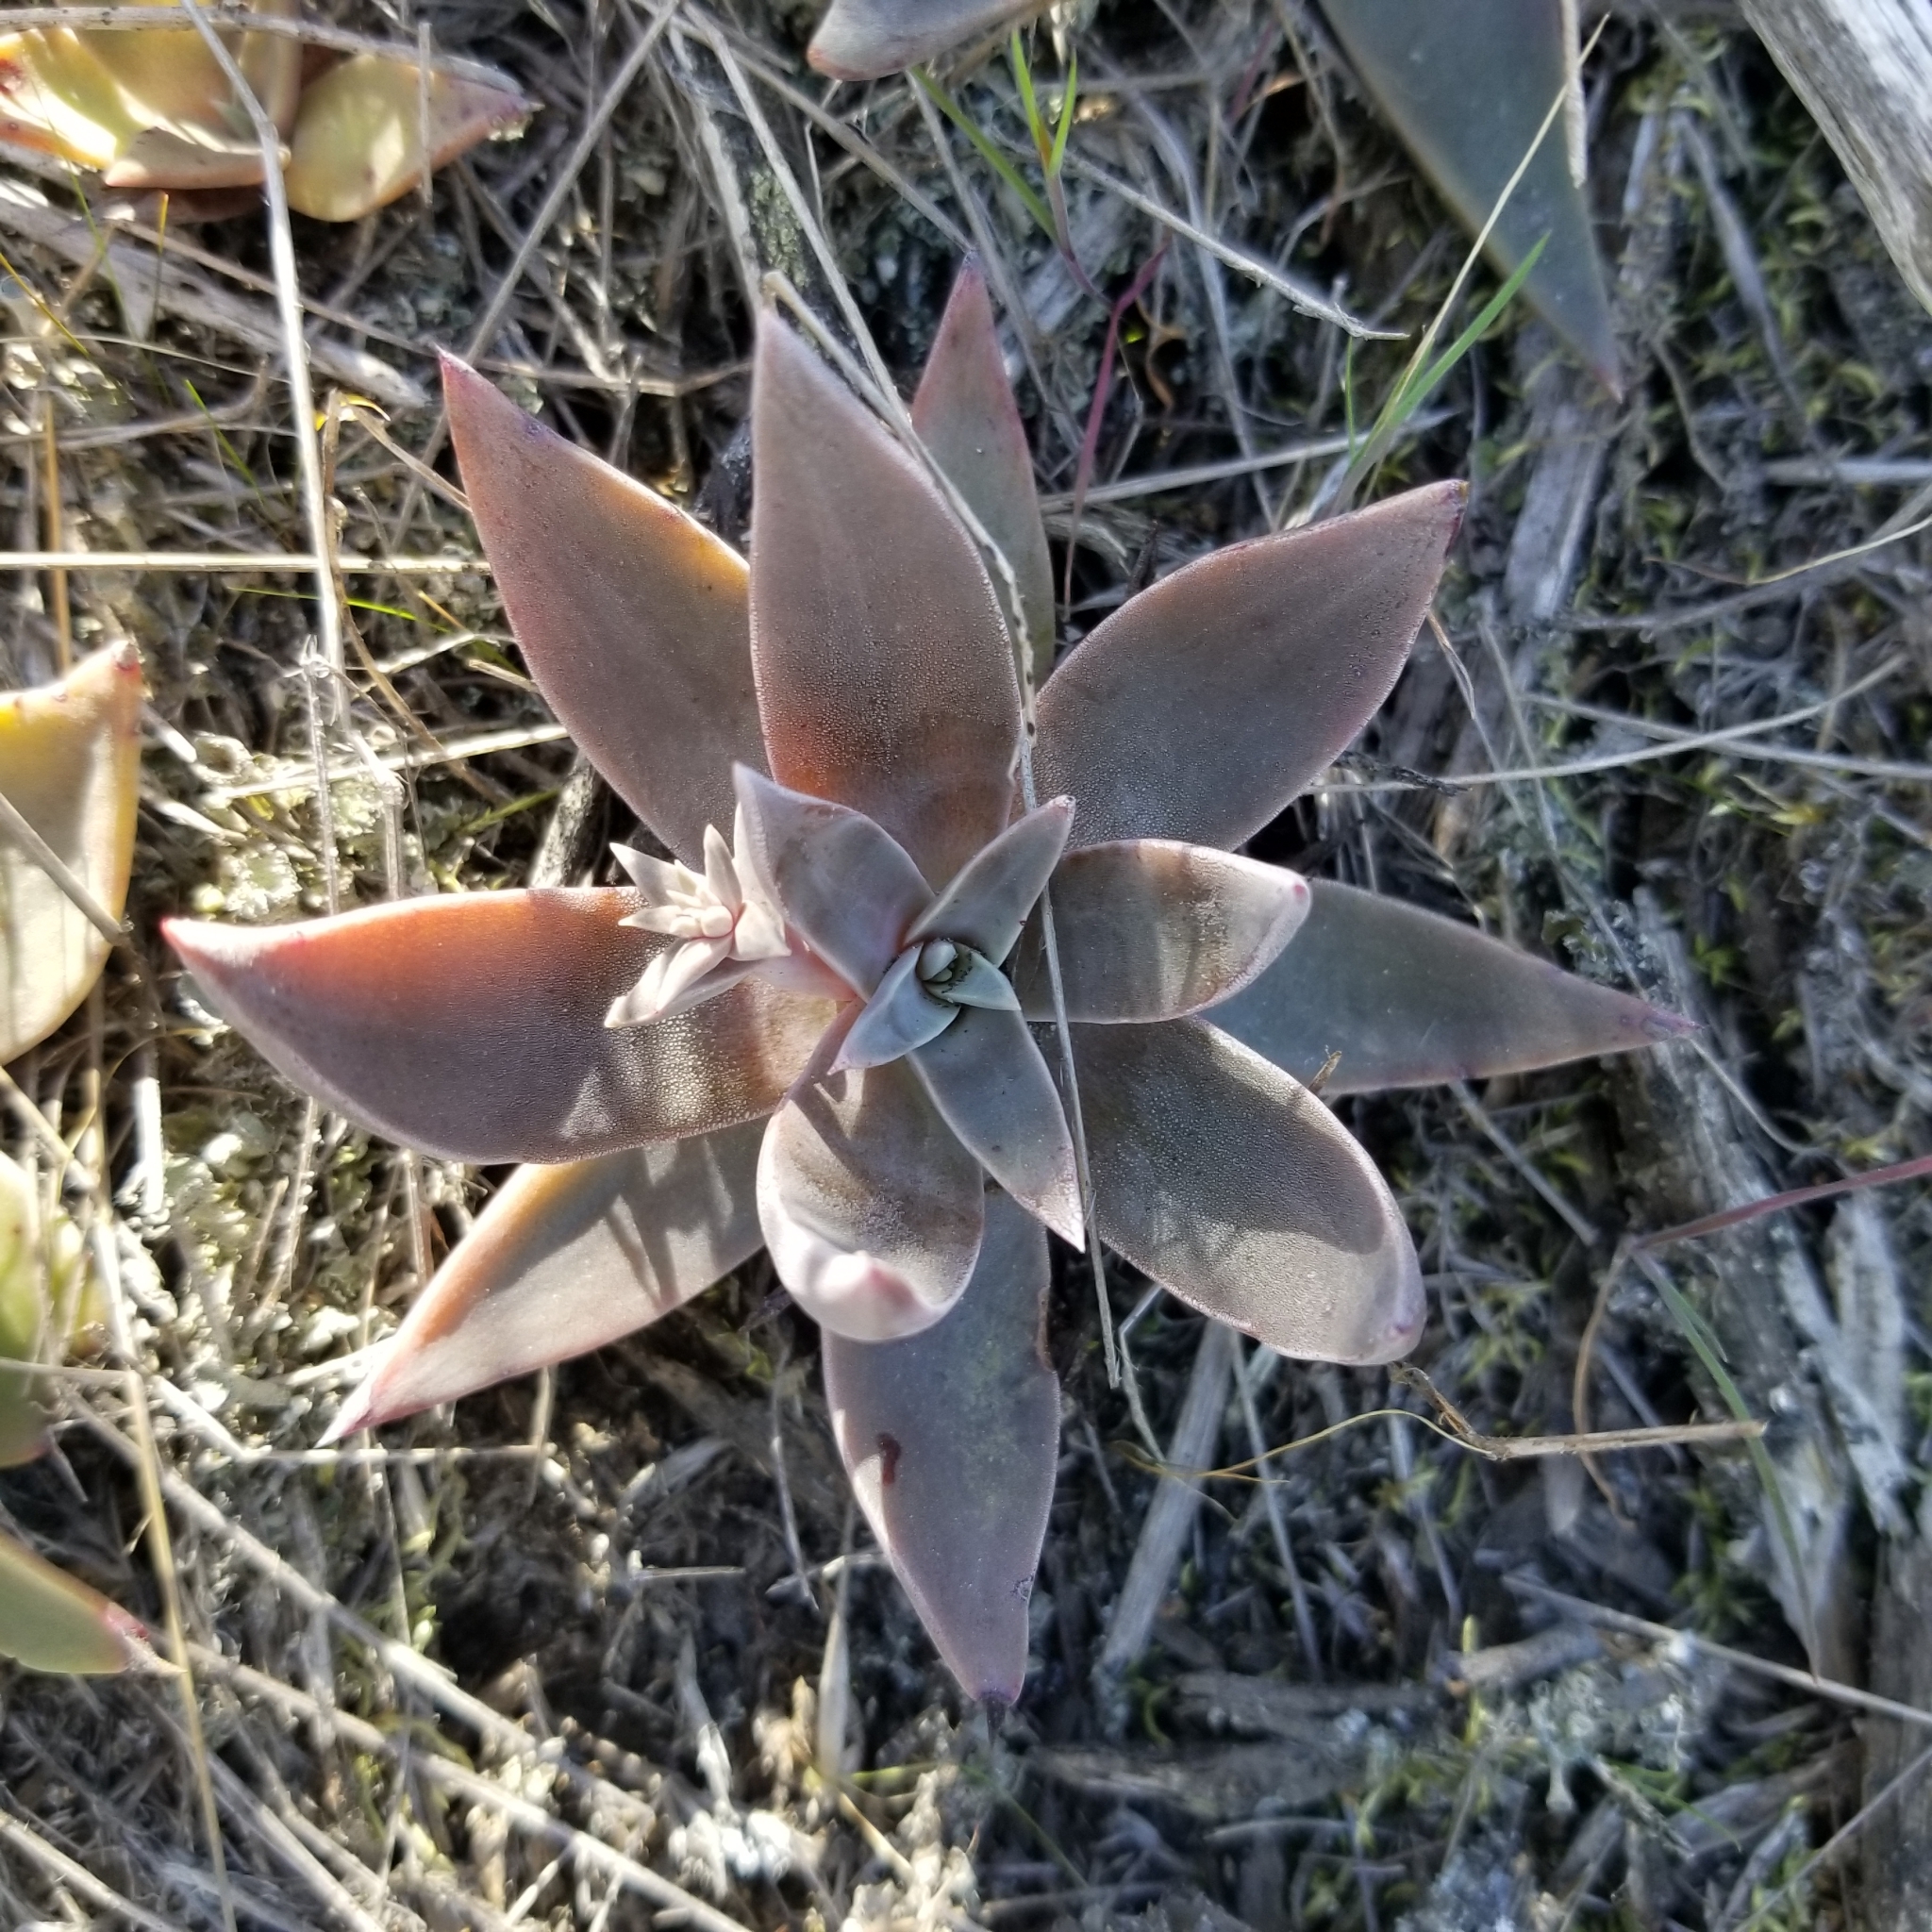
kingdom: Plantae
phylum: Tracheophyta
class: Magnoliopsida
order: Saxifragales
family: Crassulaceae
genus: Dudleya
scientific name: Dudleya lanceolata
